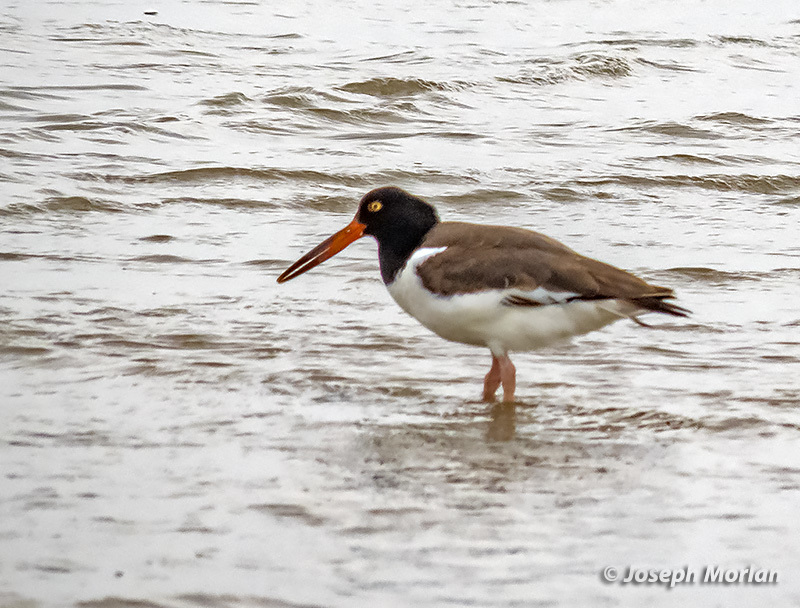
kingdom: Animalia
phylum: Chordata
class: Aves
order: Charadriiformes
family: Haematopodidae
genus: Haematopus
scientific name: Haematopus palliatus
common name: American oystercatcher
